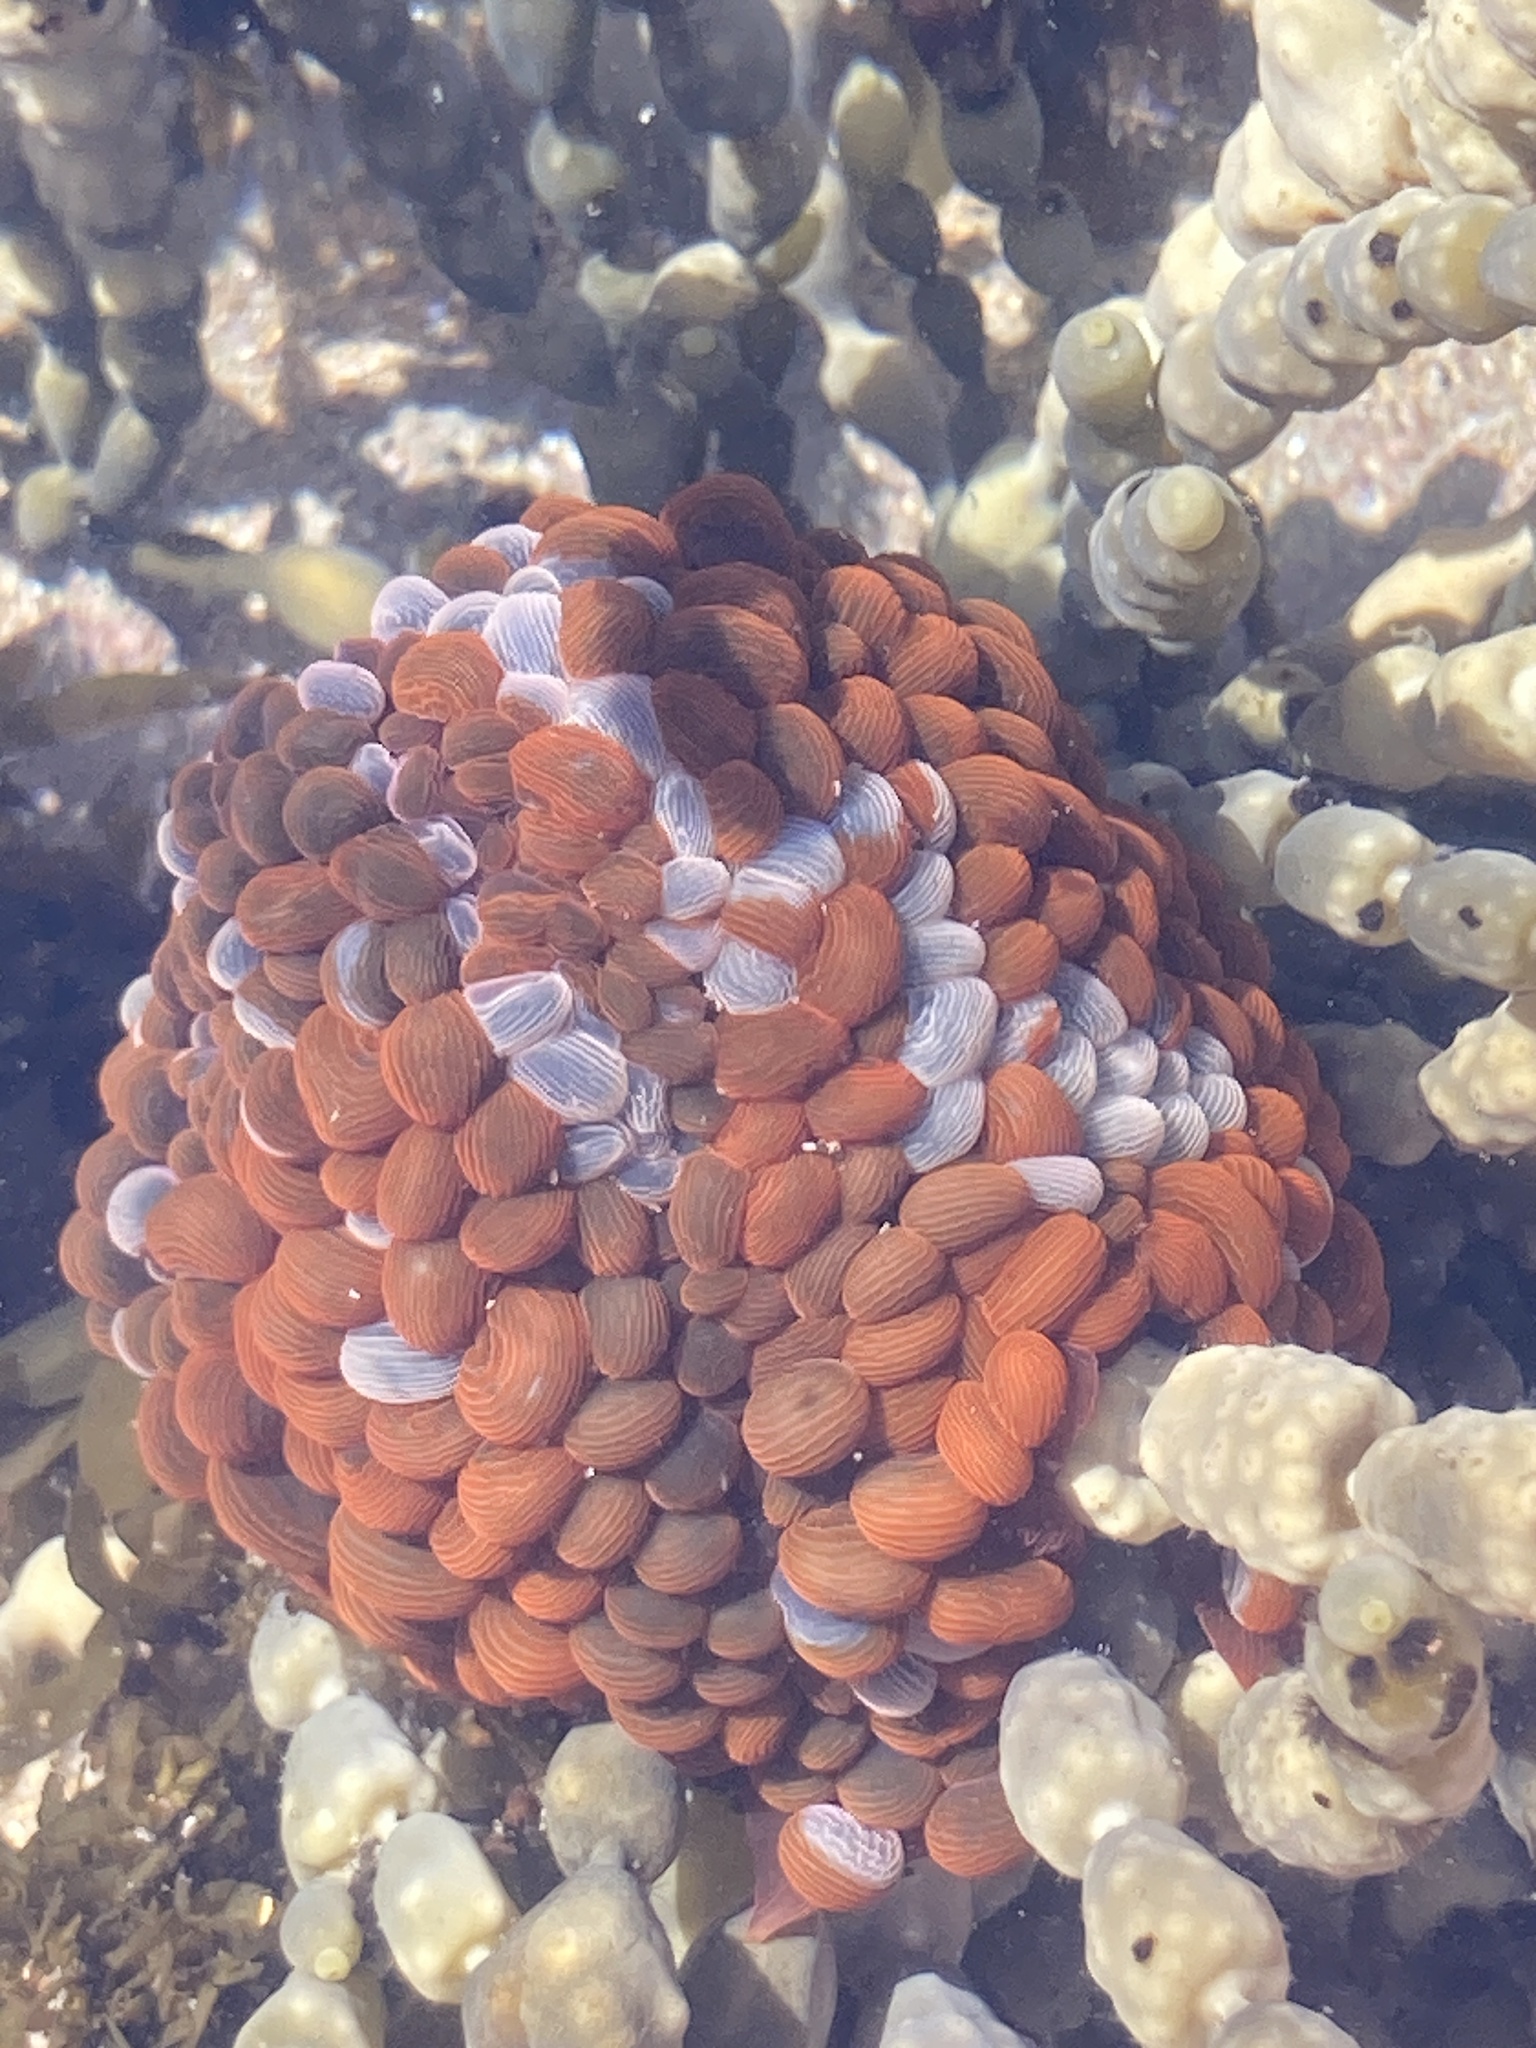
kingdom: Animalia
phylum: Cnidaria
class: Anthozoa
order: Actiniaria
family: Actiniidae
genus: Phlyctenactis
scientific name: Phlyctenactis tuberculosa
